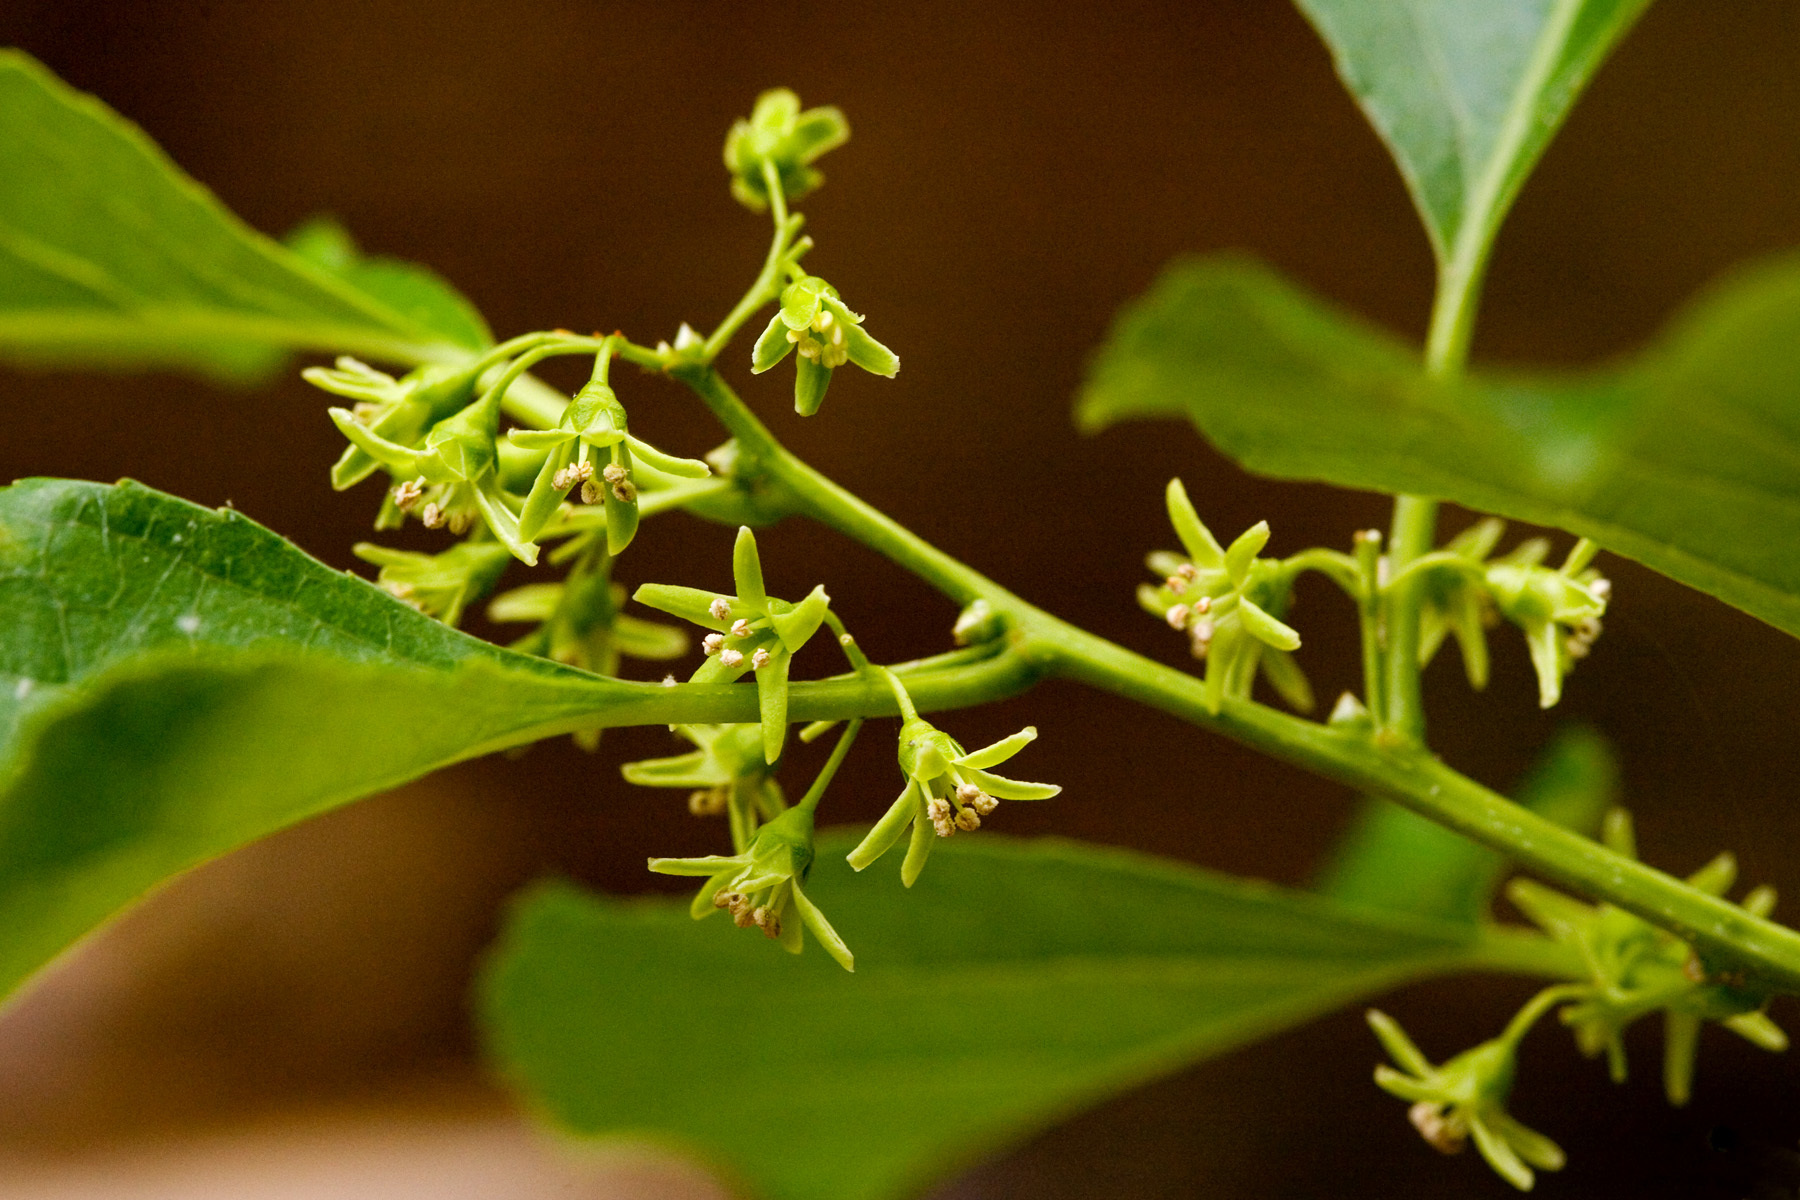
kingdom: Plantae
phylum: Tracheophyta
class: Magnoliopsida
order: Celastrales
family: Celastraceae
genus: Celastrus
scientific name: Celastrus orbiculatus
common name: Oriental bittersweet
